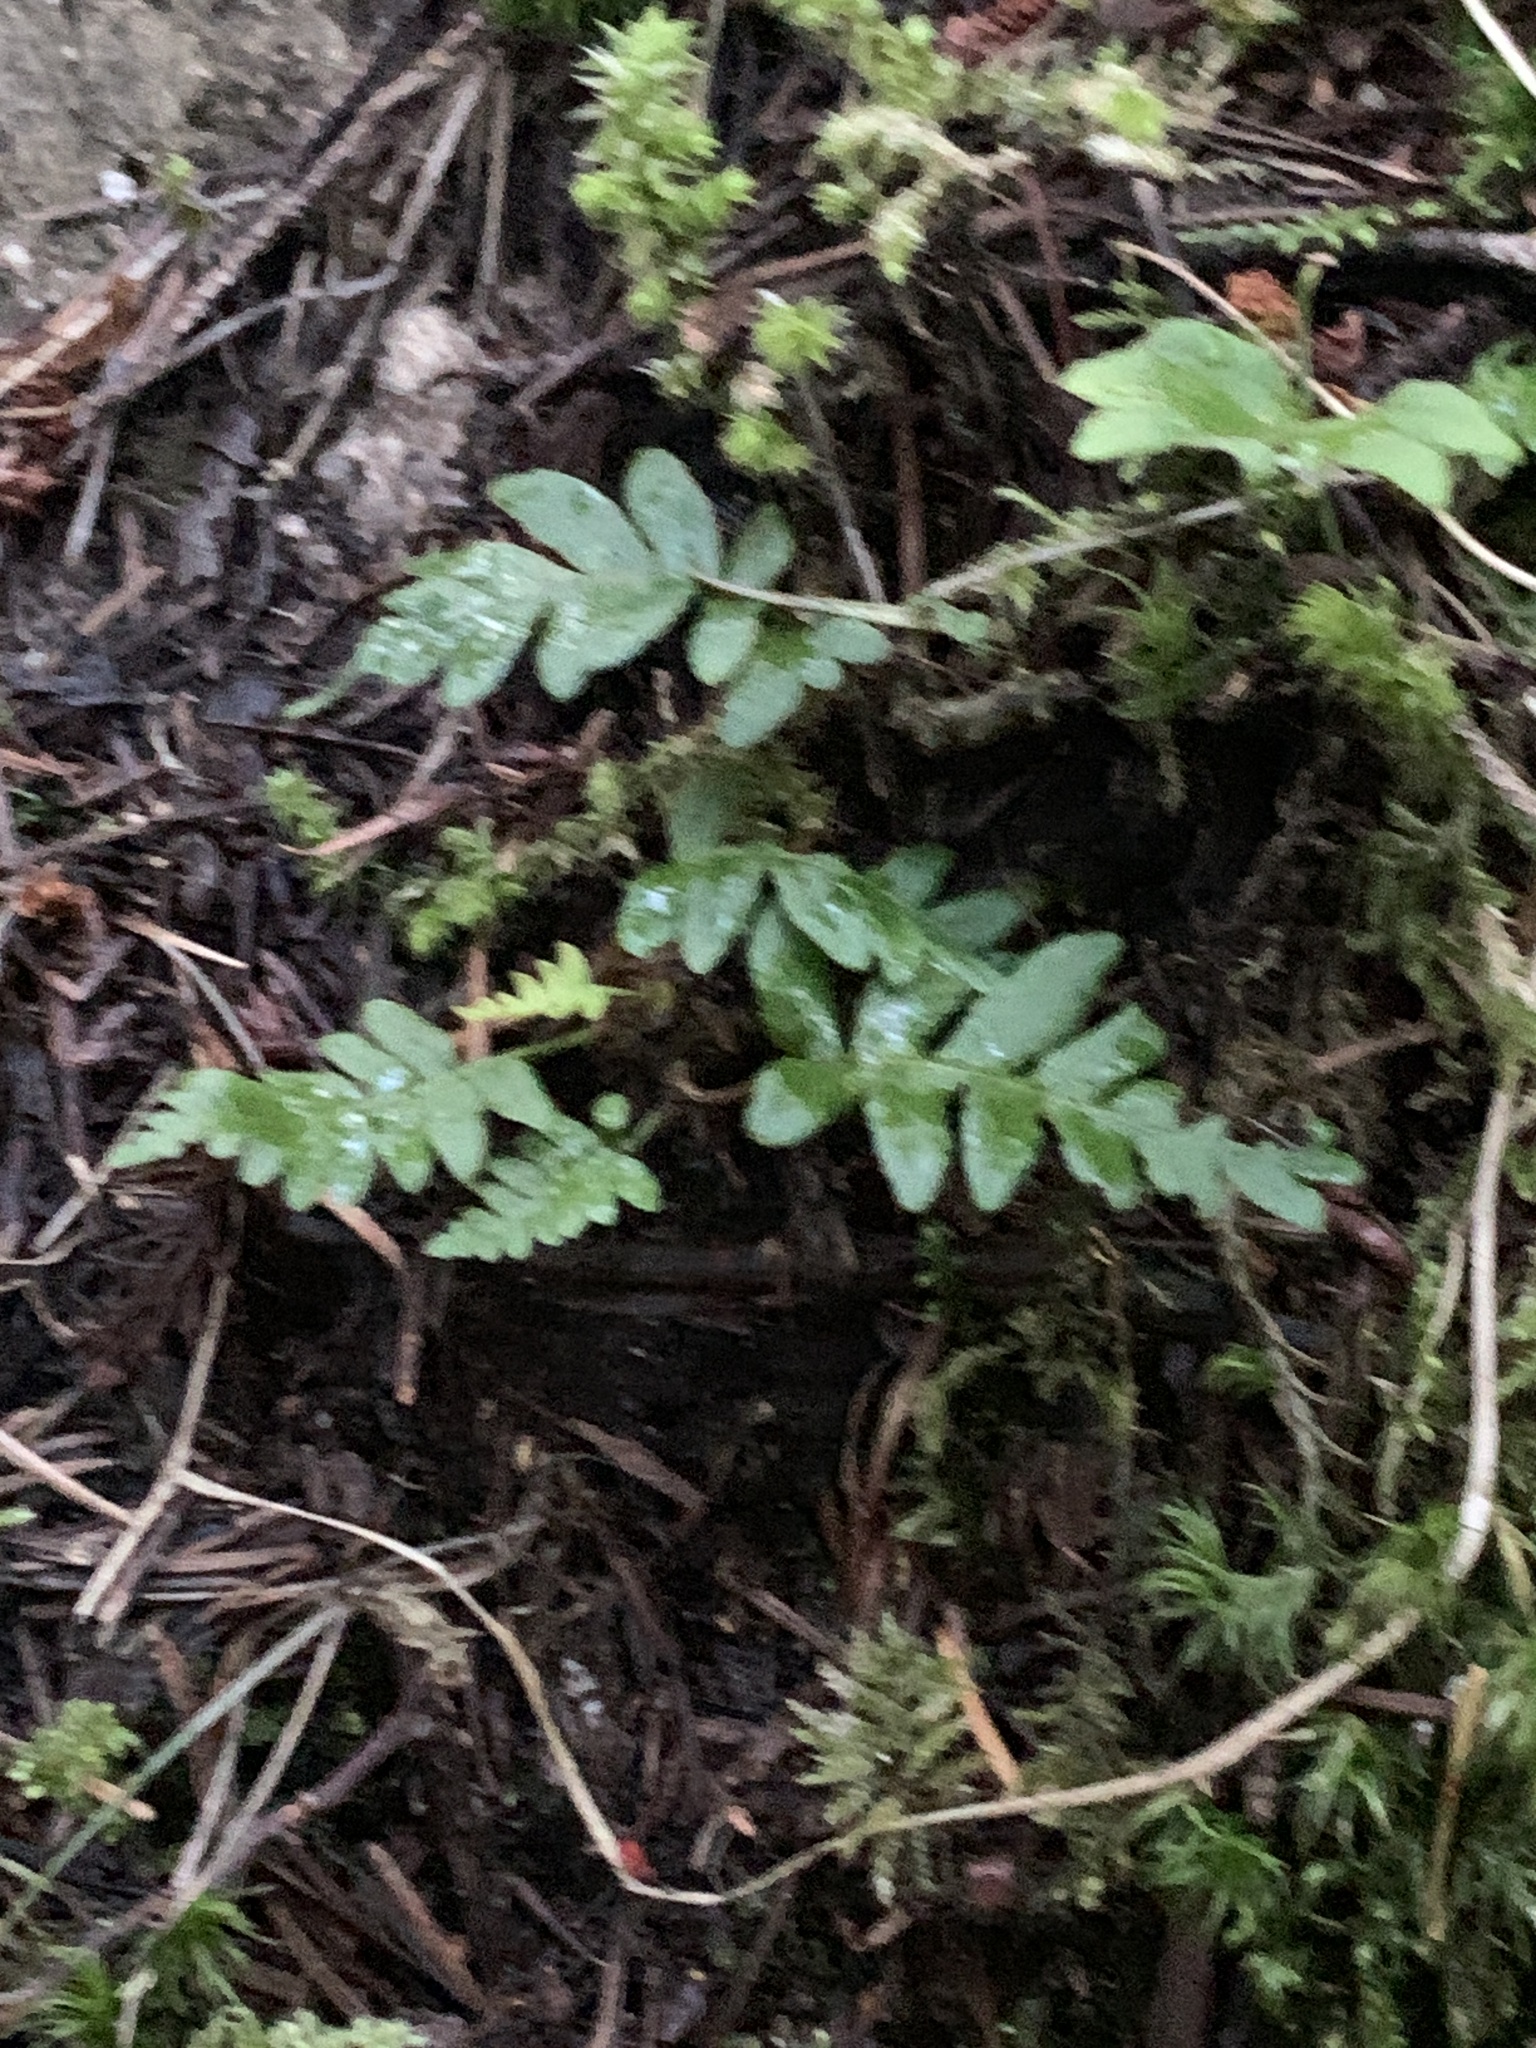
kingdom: Plantae
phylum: Tracheophyta
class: Polypodiopsida
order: Polypodiales
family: Polypodiaceae
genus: Polypodium
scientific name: Polypodium glycyrrhiza
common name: Licorice fern
